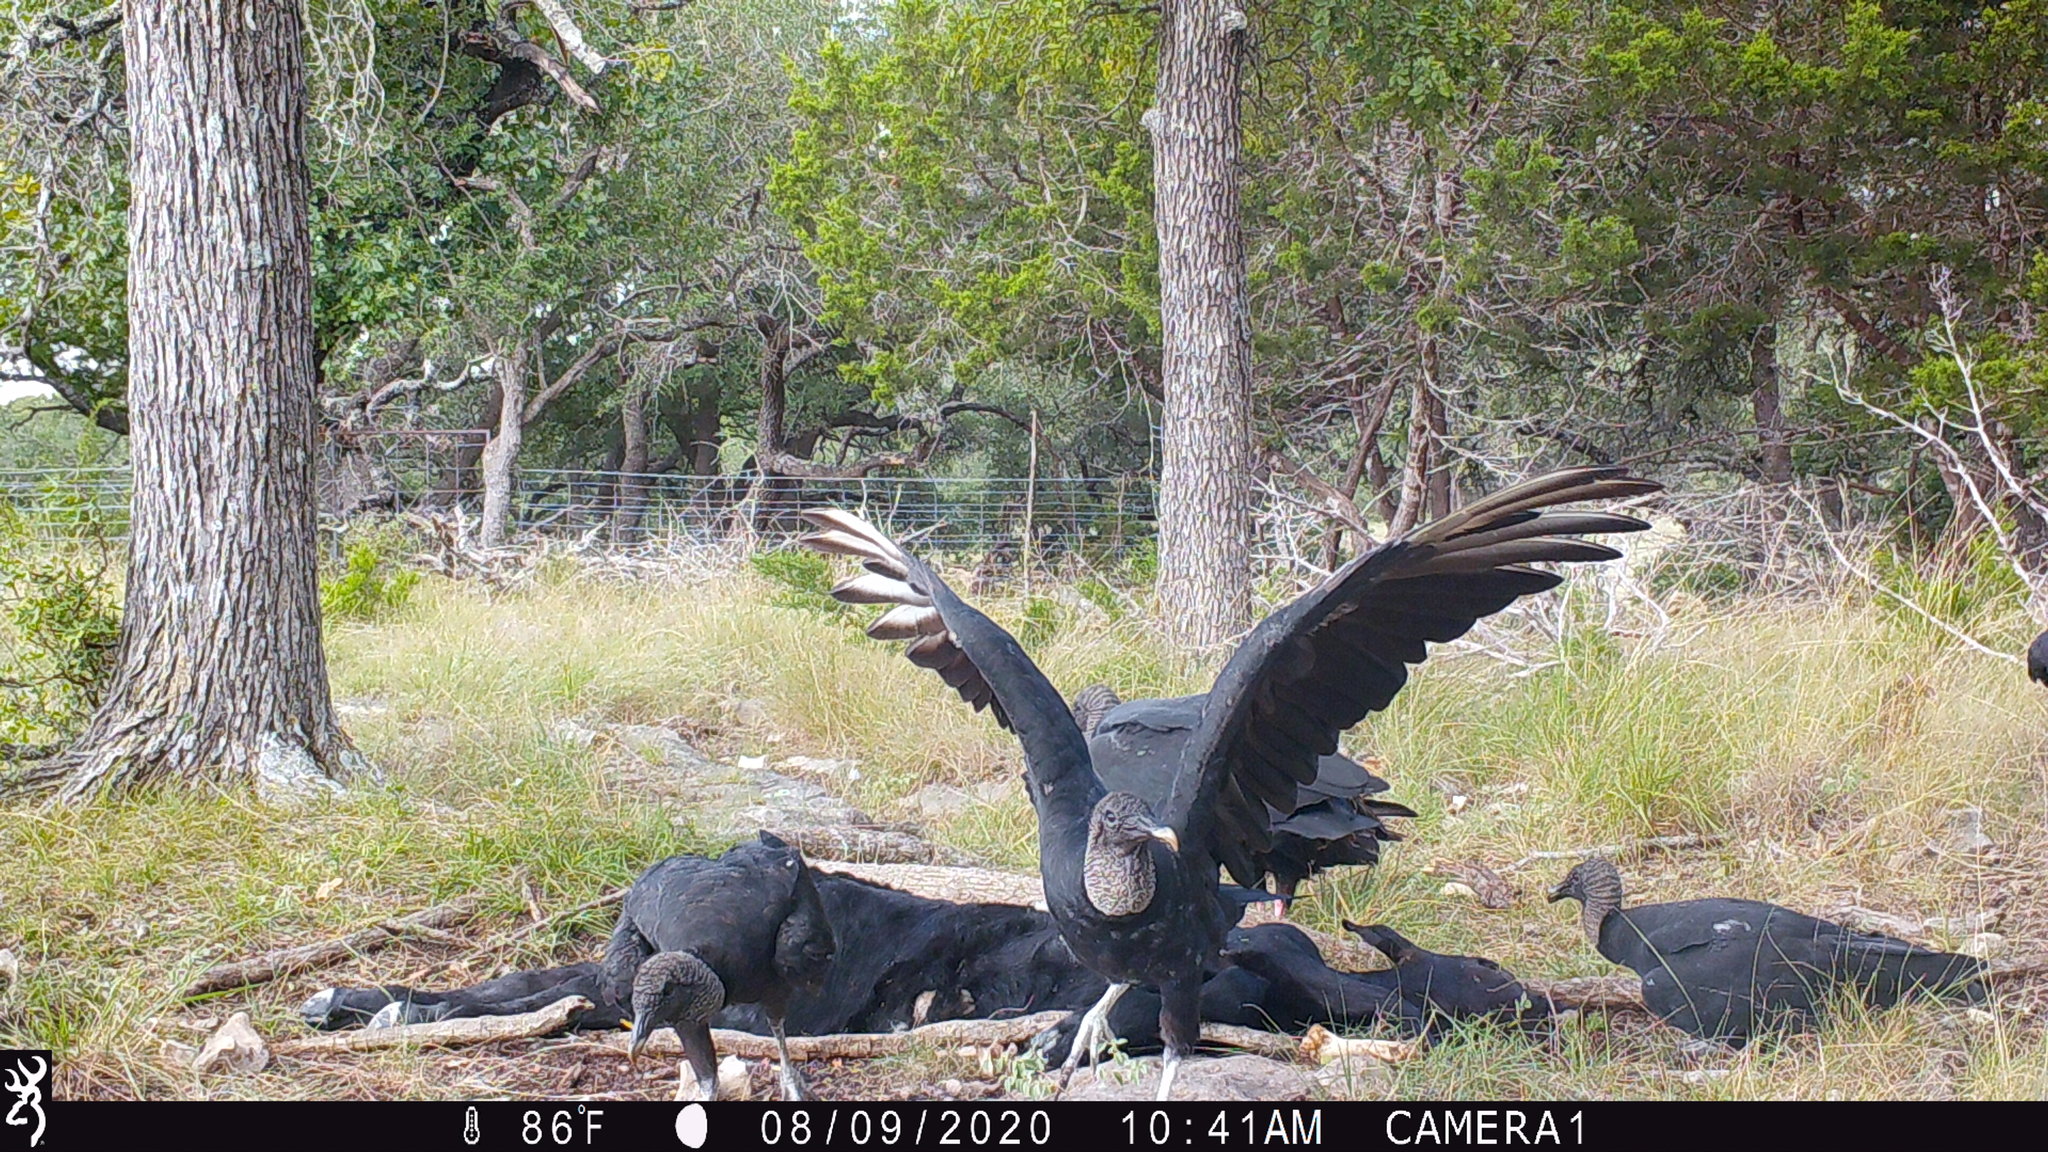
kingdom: Animalia
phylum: Chordata
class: Aves
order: Accipitriformes
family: Cathartidae
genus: Coragyps
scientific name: Coragyps atratus
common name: Black vulture
